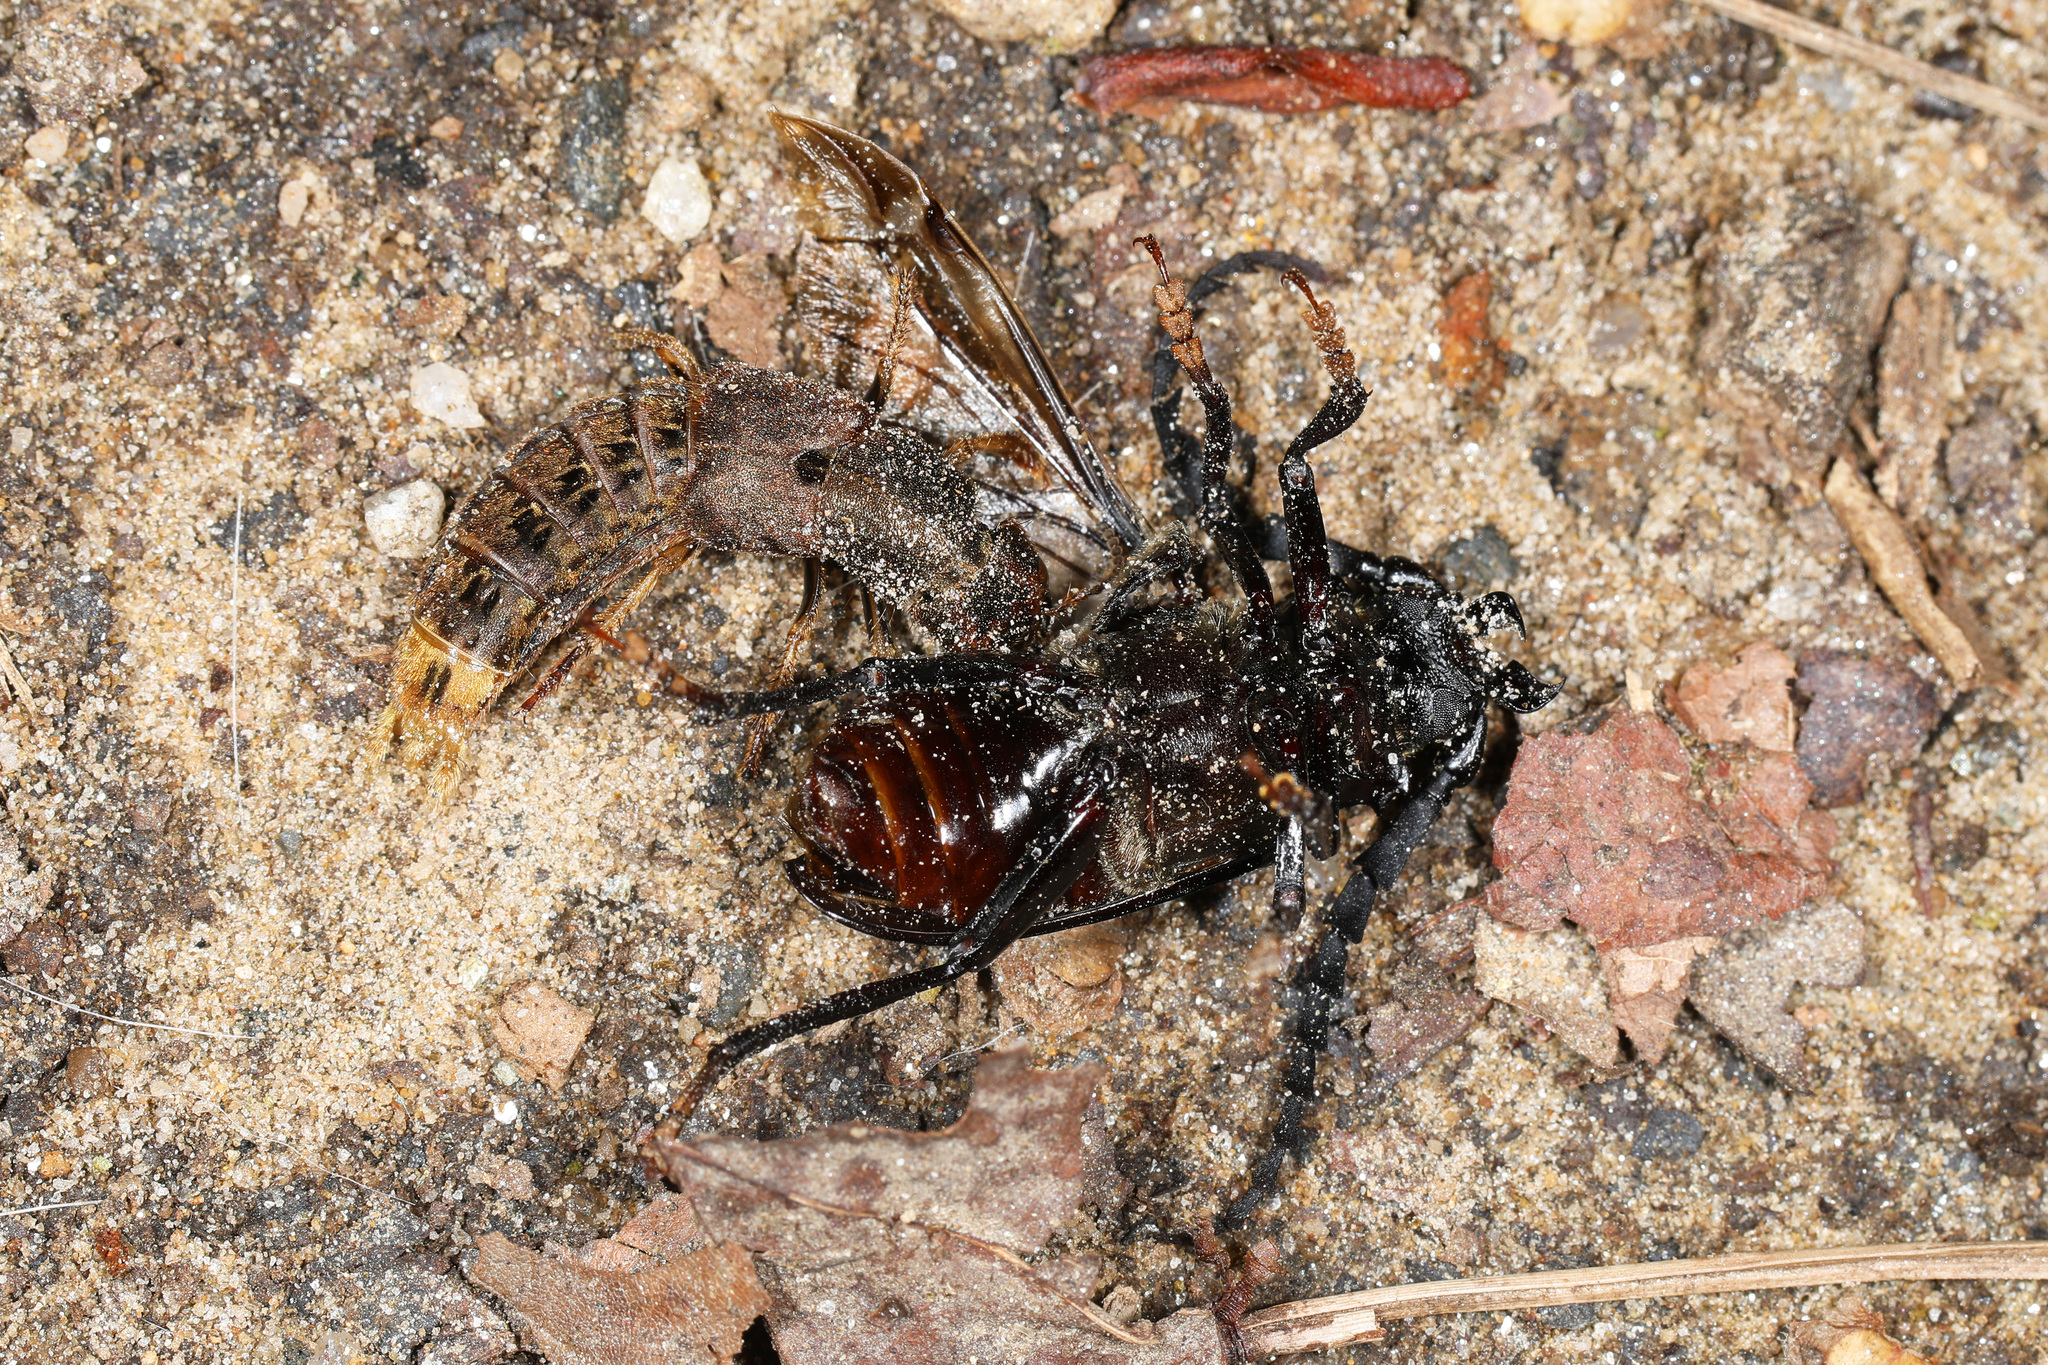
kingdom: Animalia
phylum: Arthropoda
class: Insecta
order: Coleoptera
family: Staphylinidae
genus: Platydracus
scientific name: Platydracus maculosus
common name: Brown rove beetle
